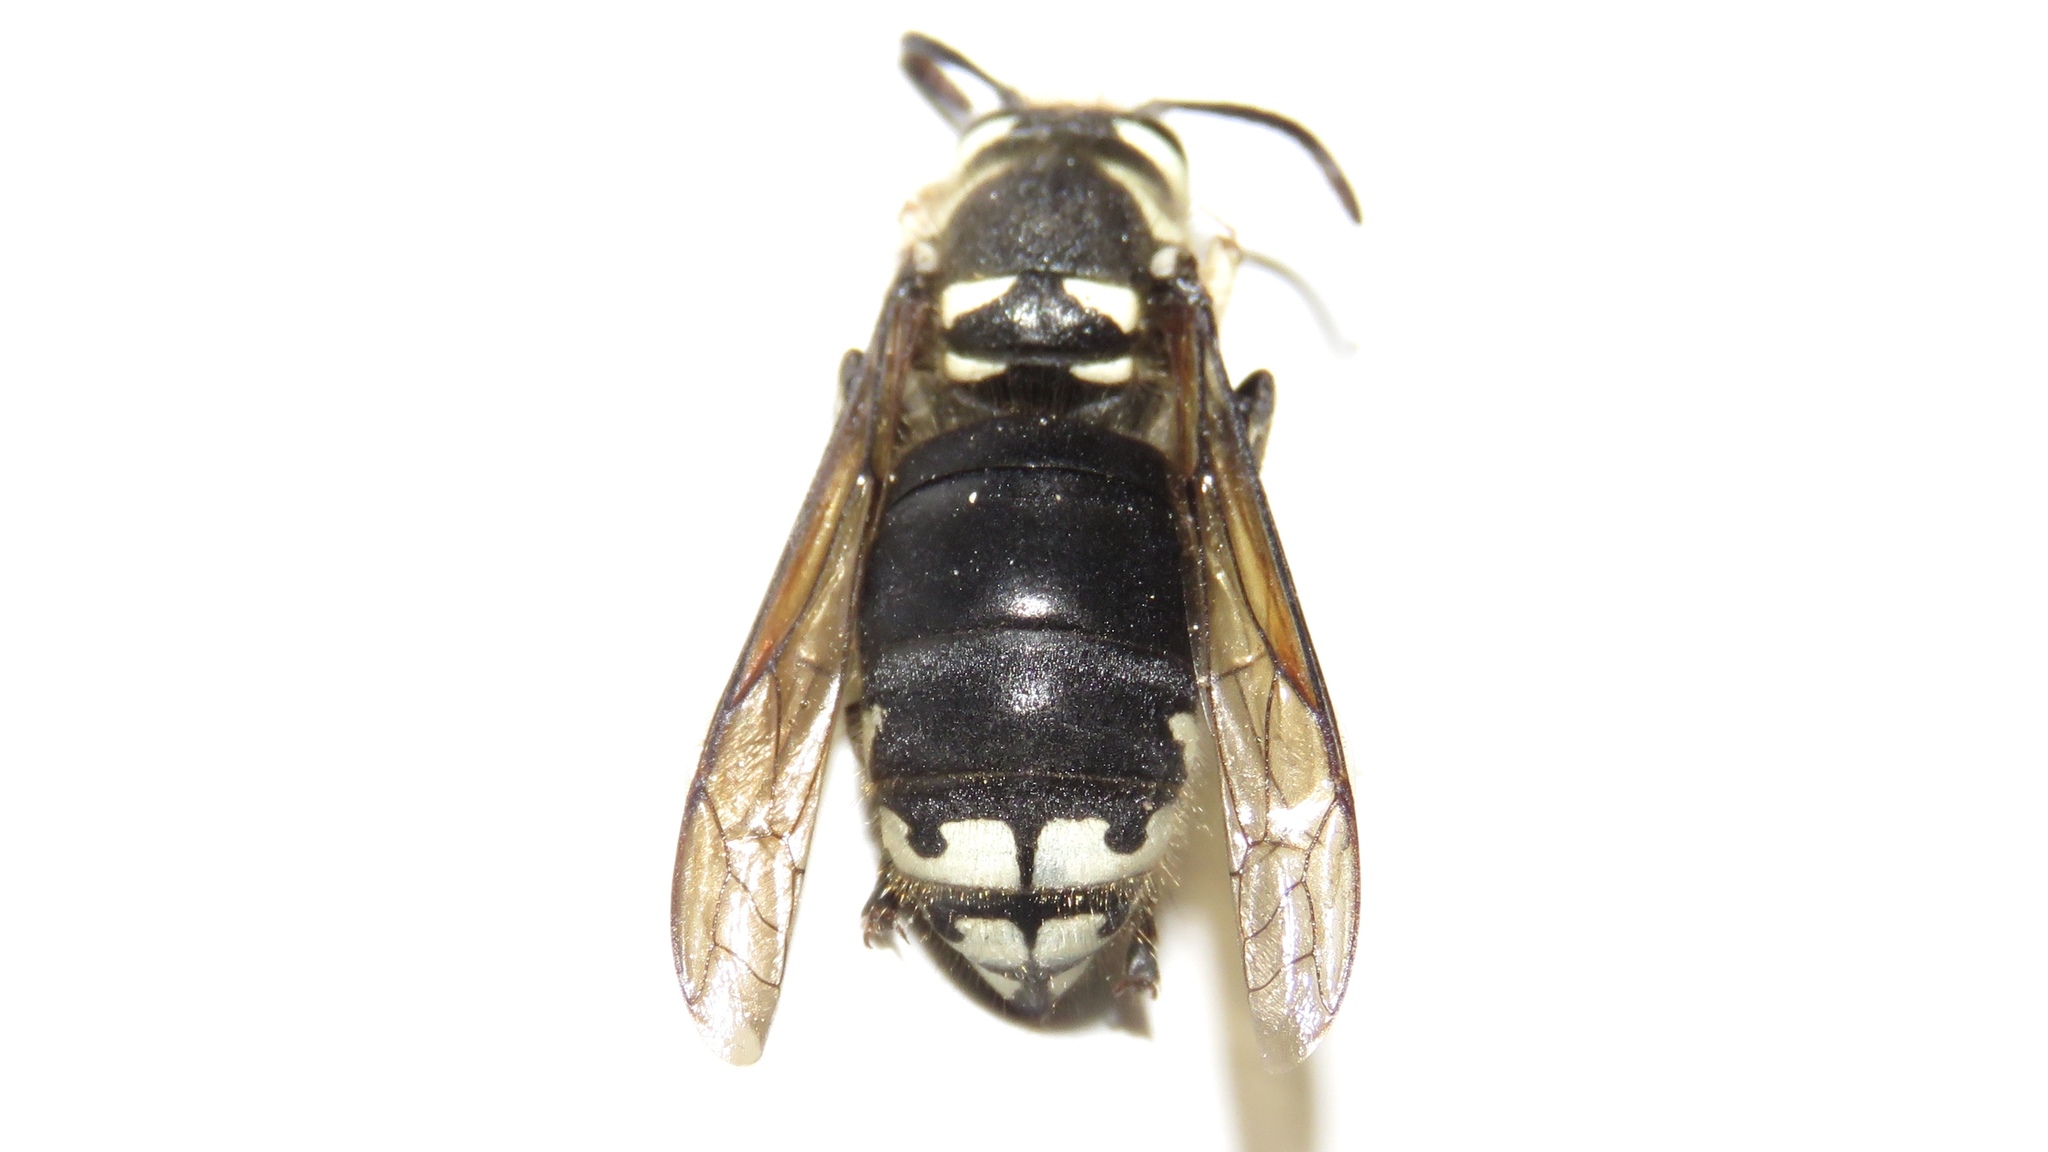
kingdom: Animalia
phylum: Arthropoda
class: Insecta
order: Hymenoptera
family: Vespidae
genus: Dolichovespula
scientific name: Dolichovespula maculata
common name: Bald-faced hornet
